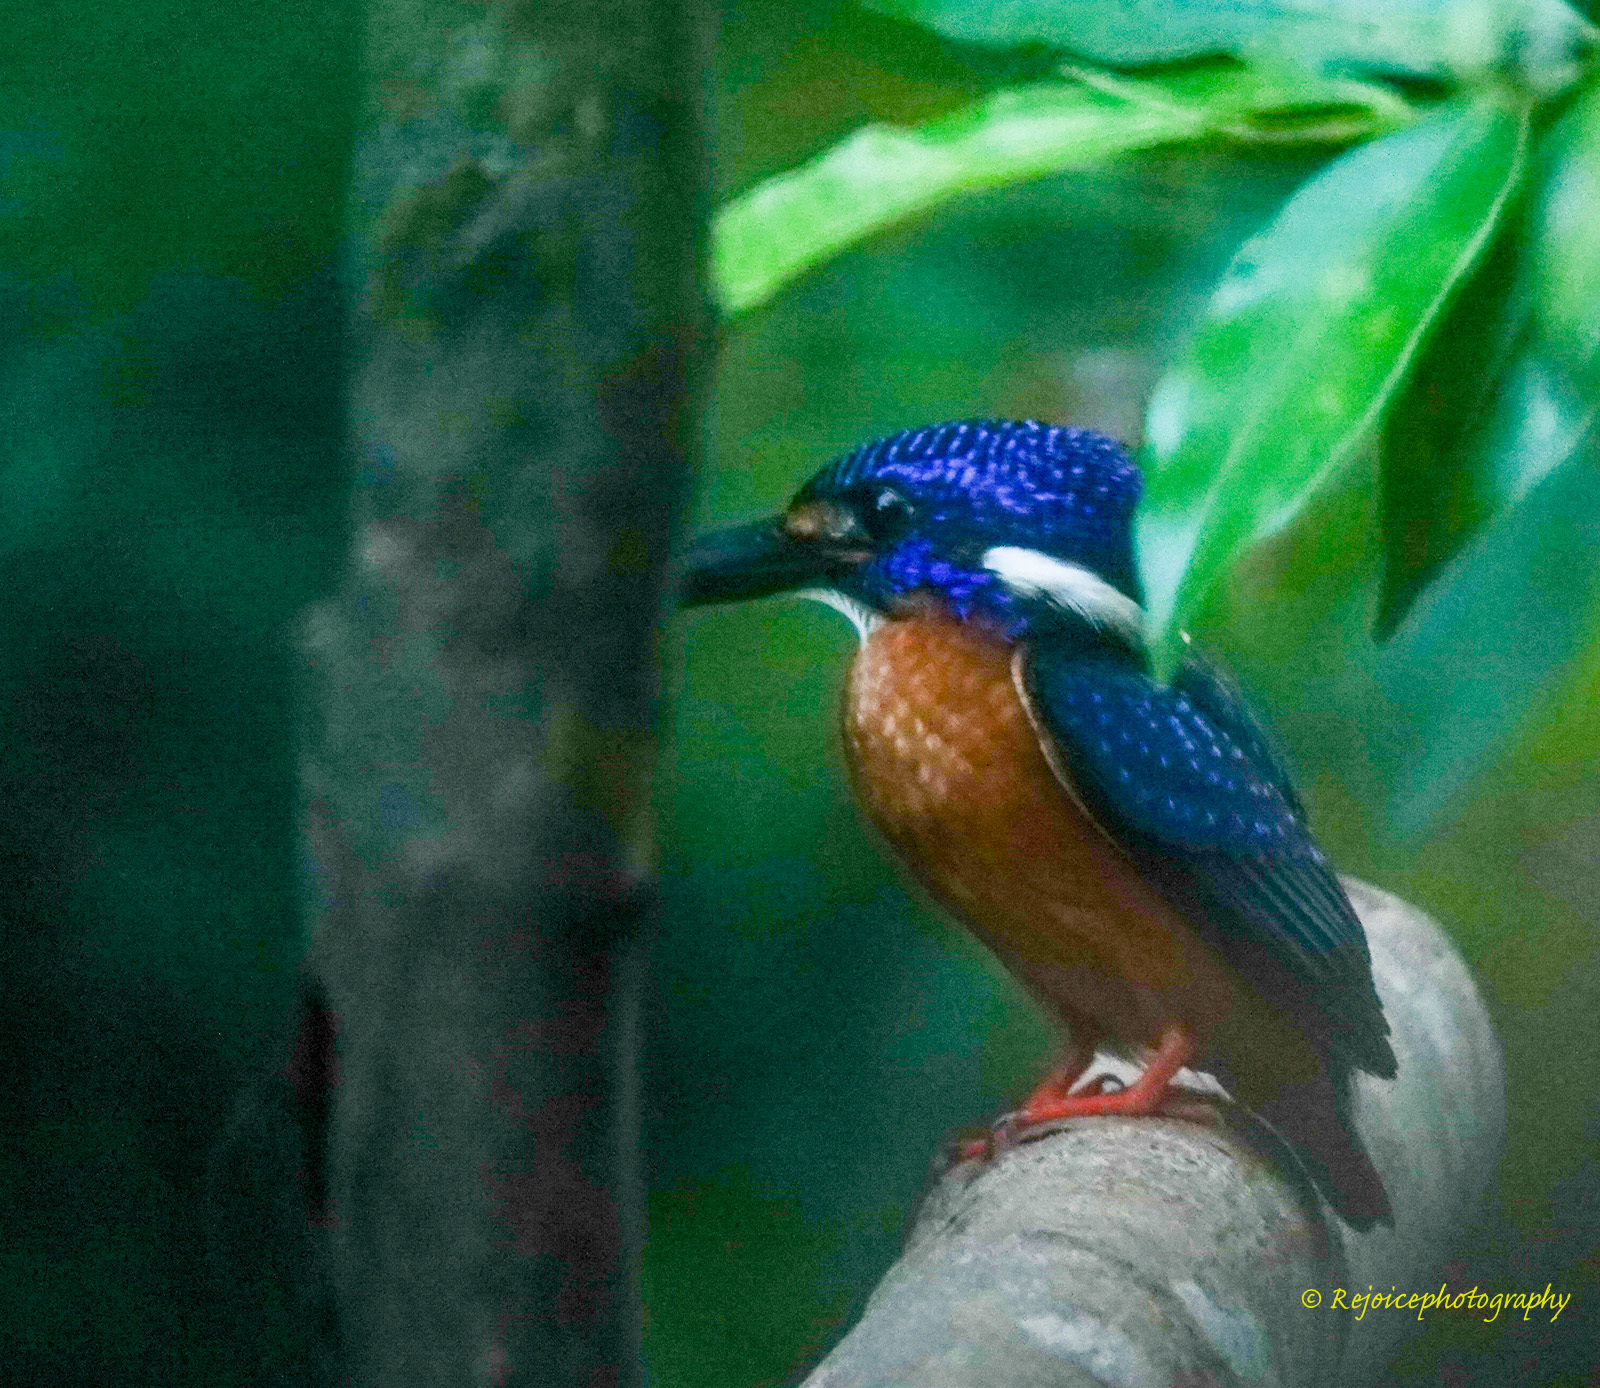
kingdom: Animalia
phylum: Chordata
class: Aves
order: Coraciiformes
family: Alcedinidae
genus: Alcedo
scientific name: Alcedo meninting
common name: Blue-eared kingfisher
